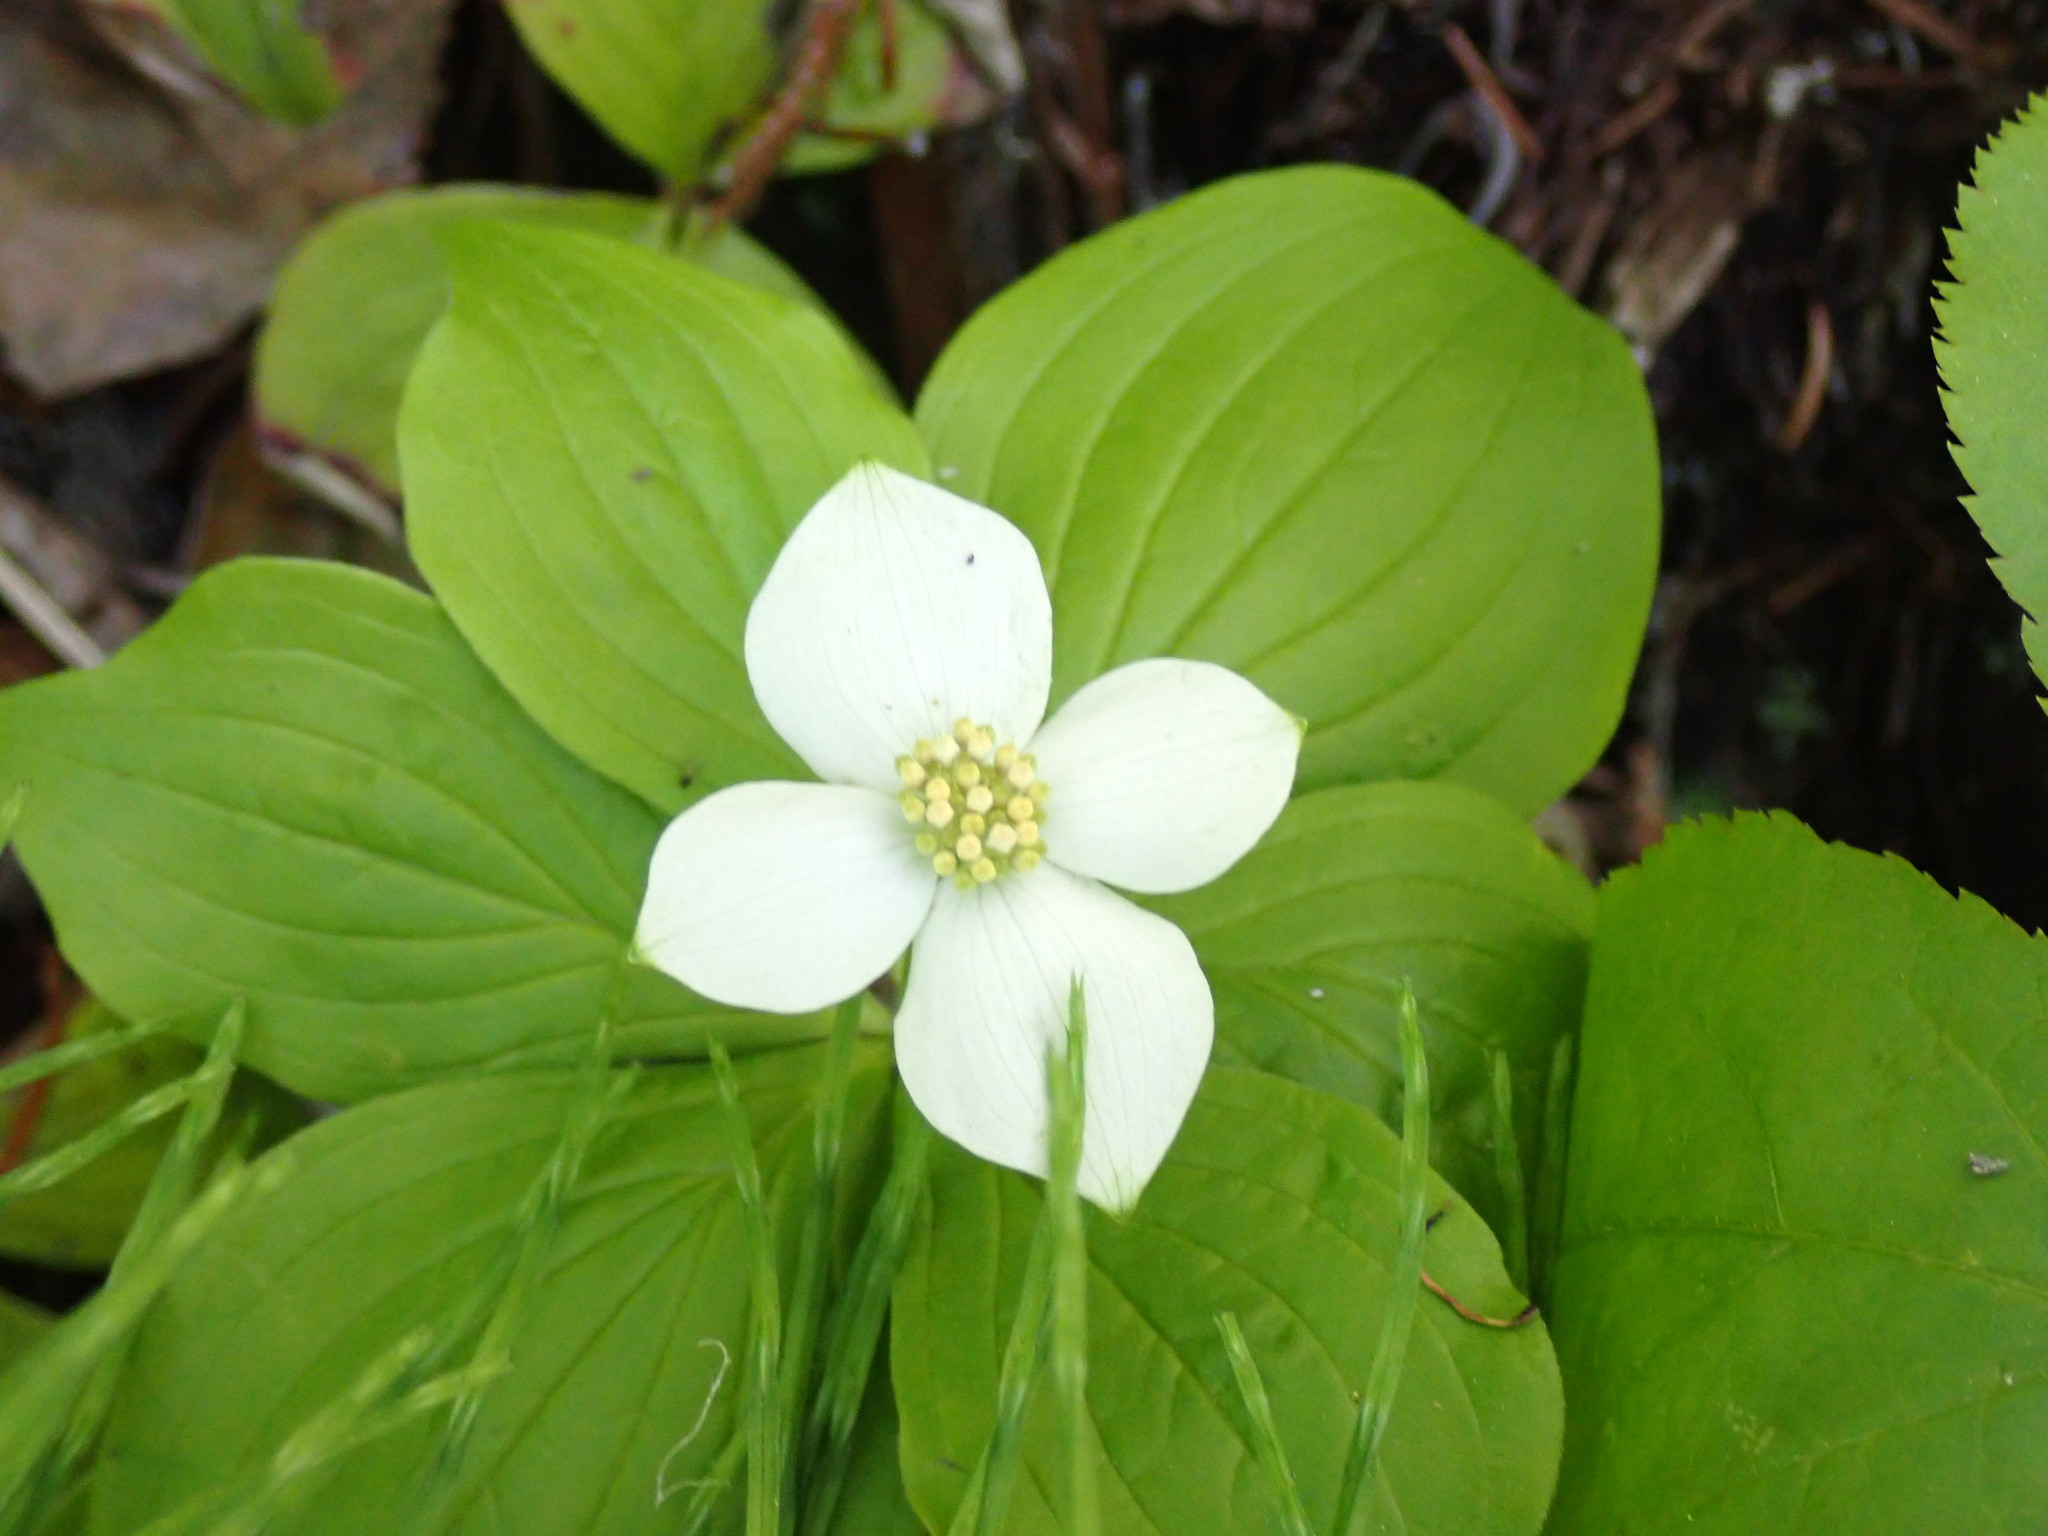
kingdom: Plantae
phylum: Tracheophyta
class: Magnoliopsida
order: Cornales
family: Cornaceae
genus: Cornus
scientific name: Cornus canadensis
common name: Creeping dogwood
